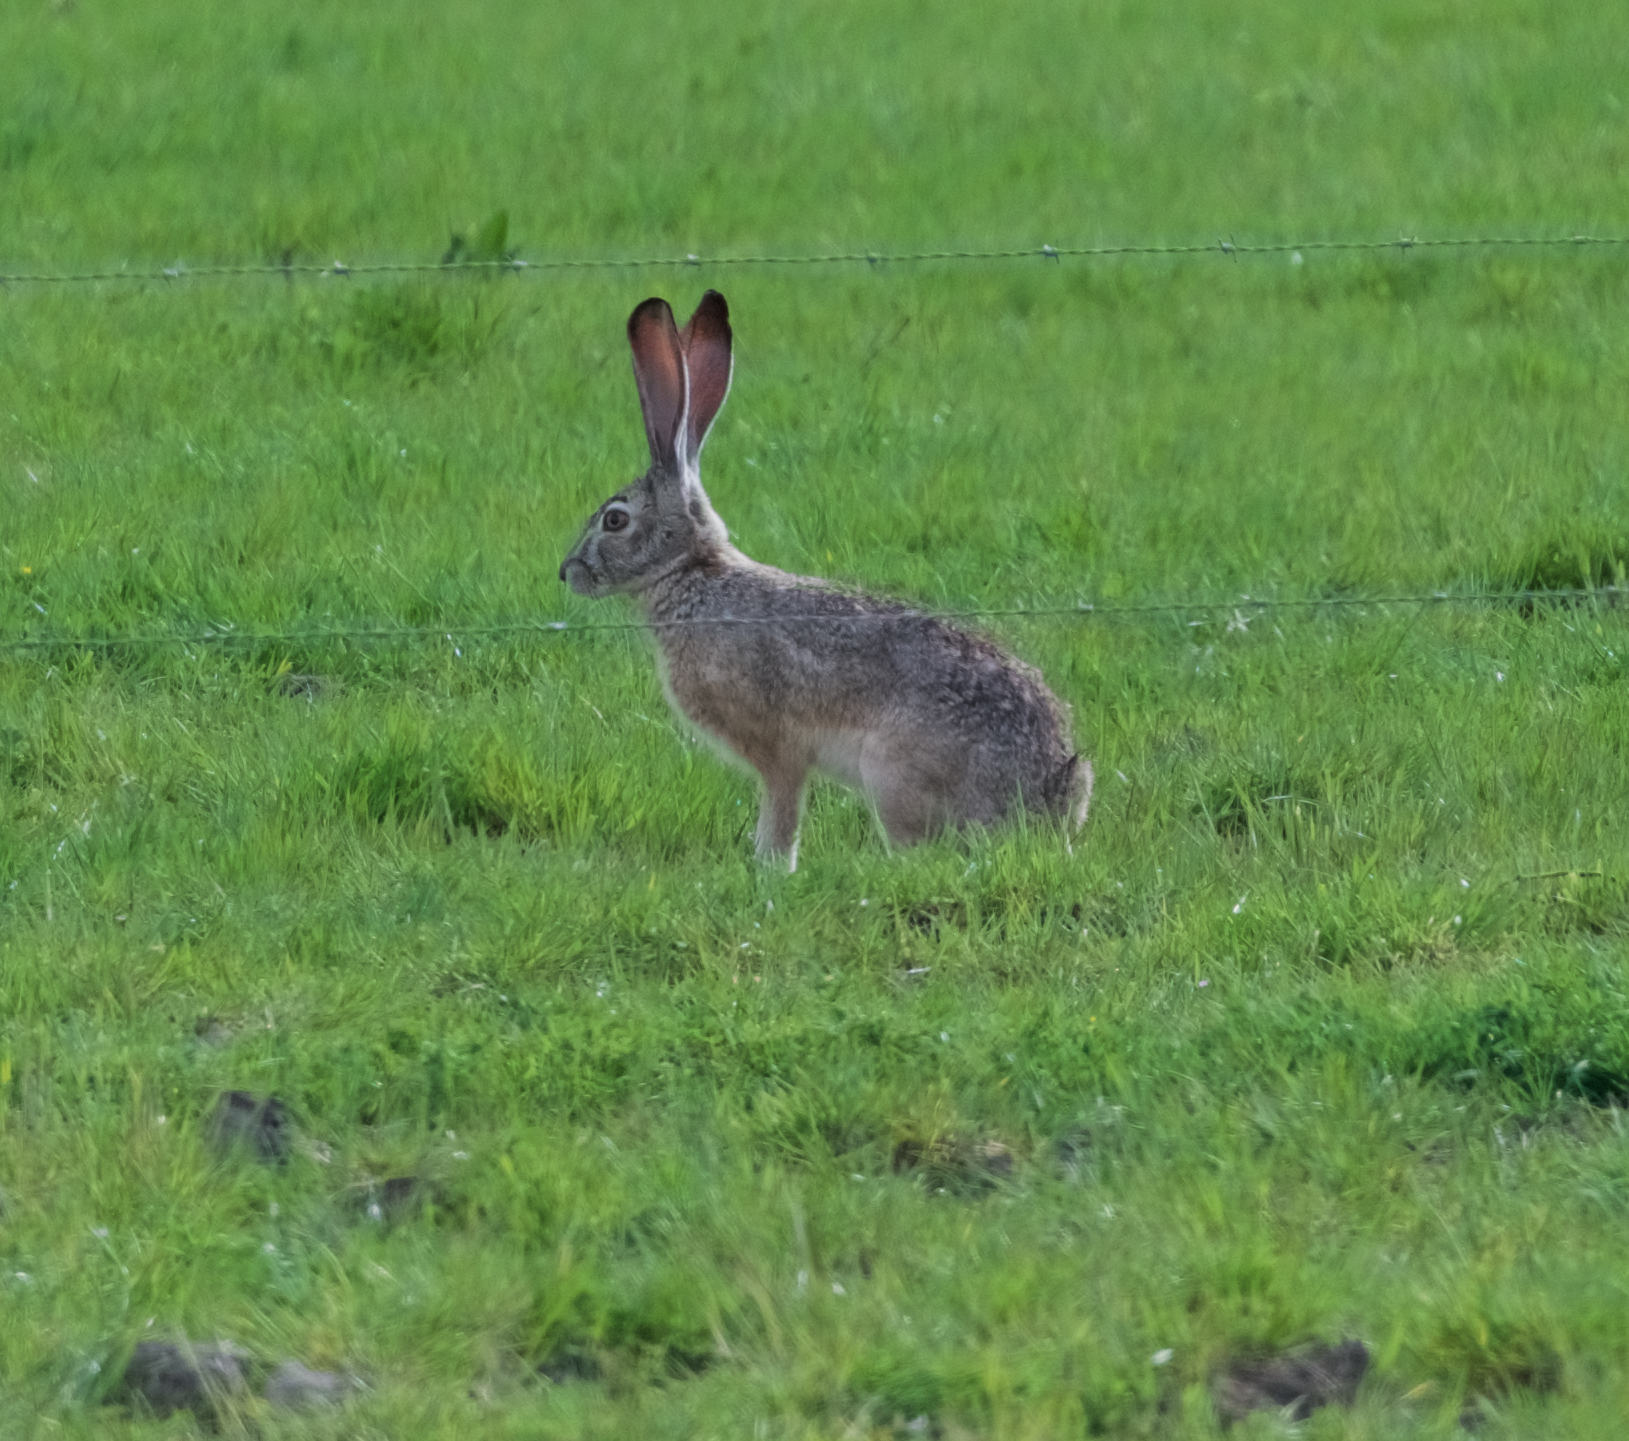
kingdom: Animalia
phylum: Chordata
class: Mammalia
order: Lagomorpha
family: Leporidae
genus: Lepus
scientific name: Lepus californicus
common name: Black-tailed jackrabbit
